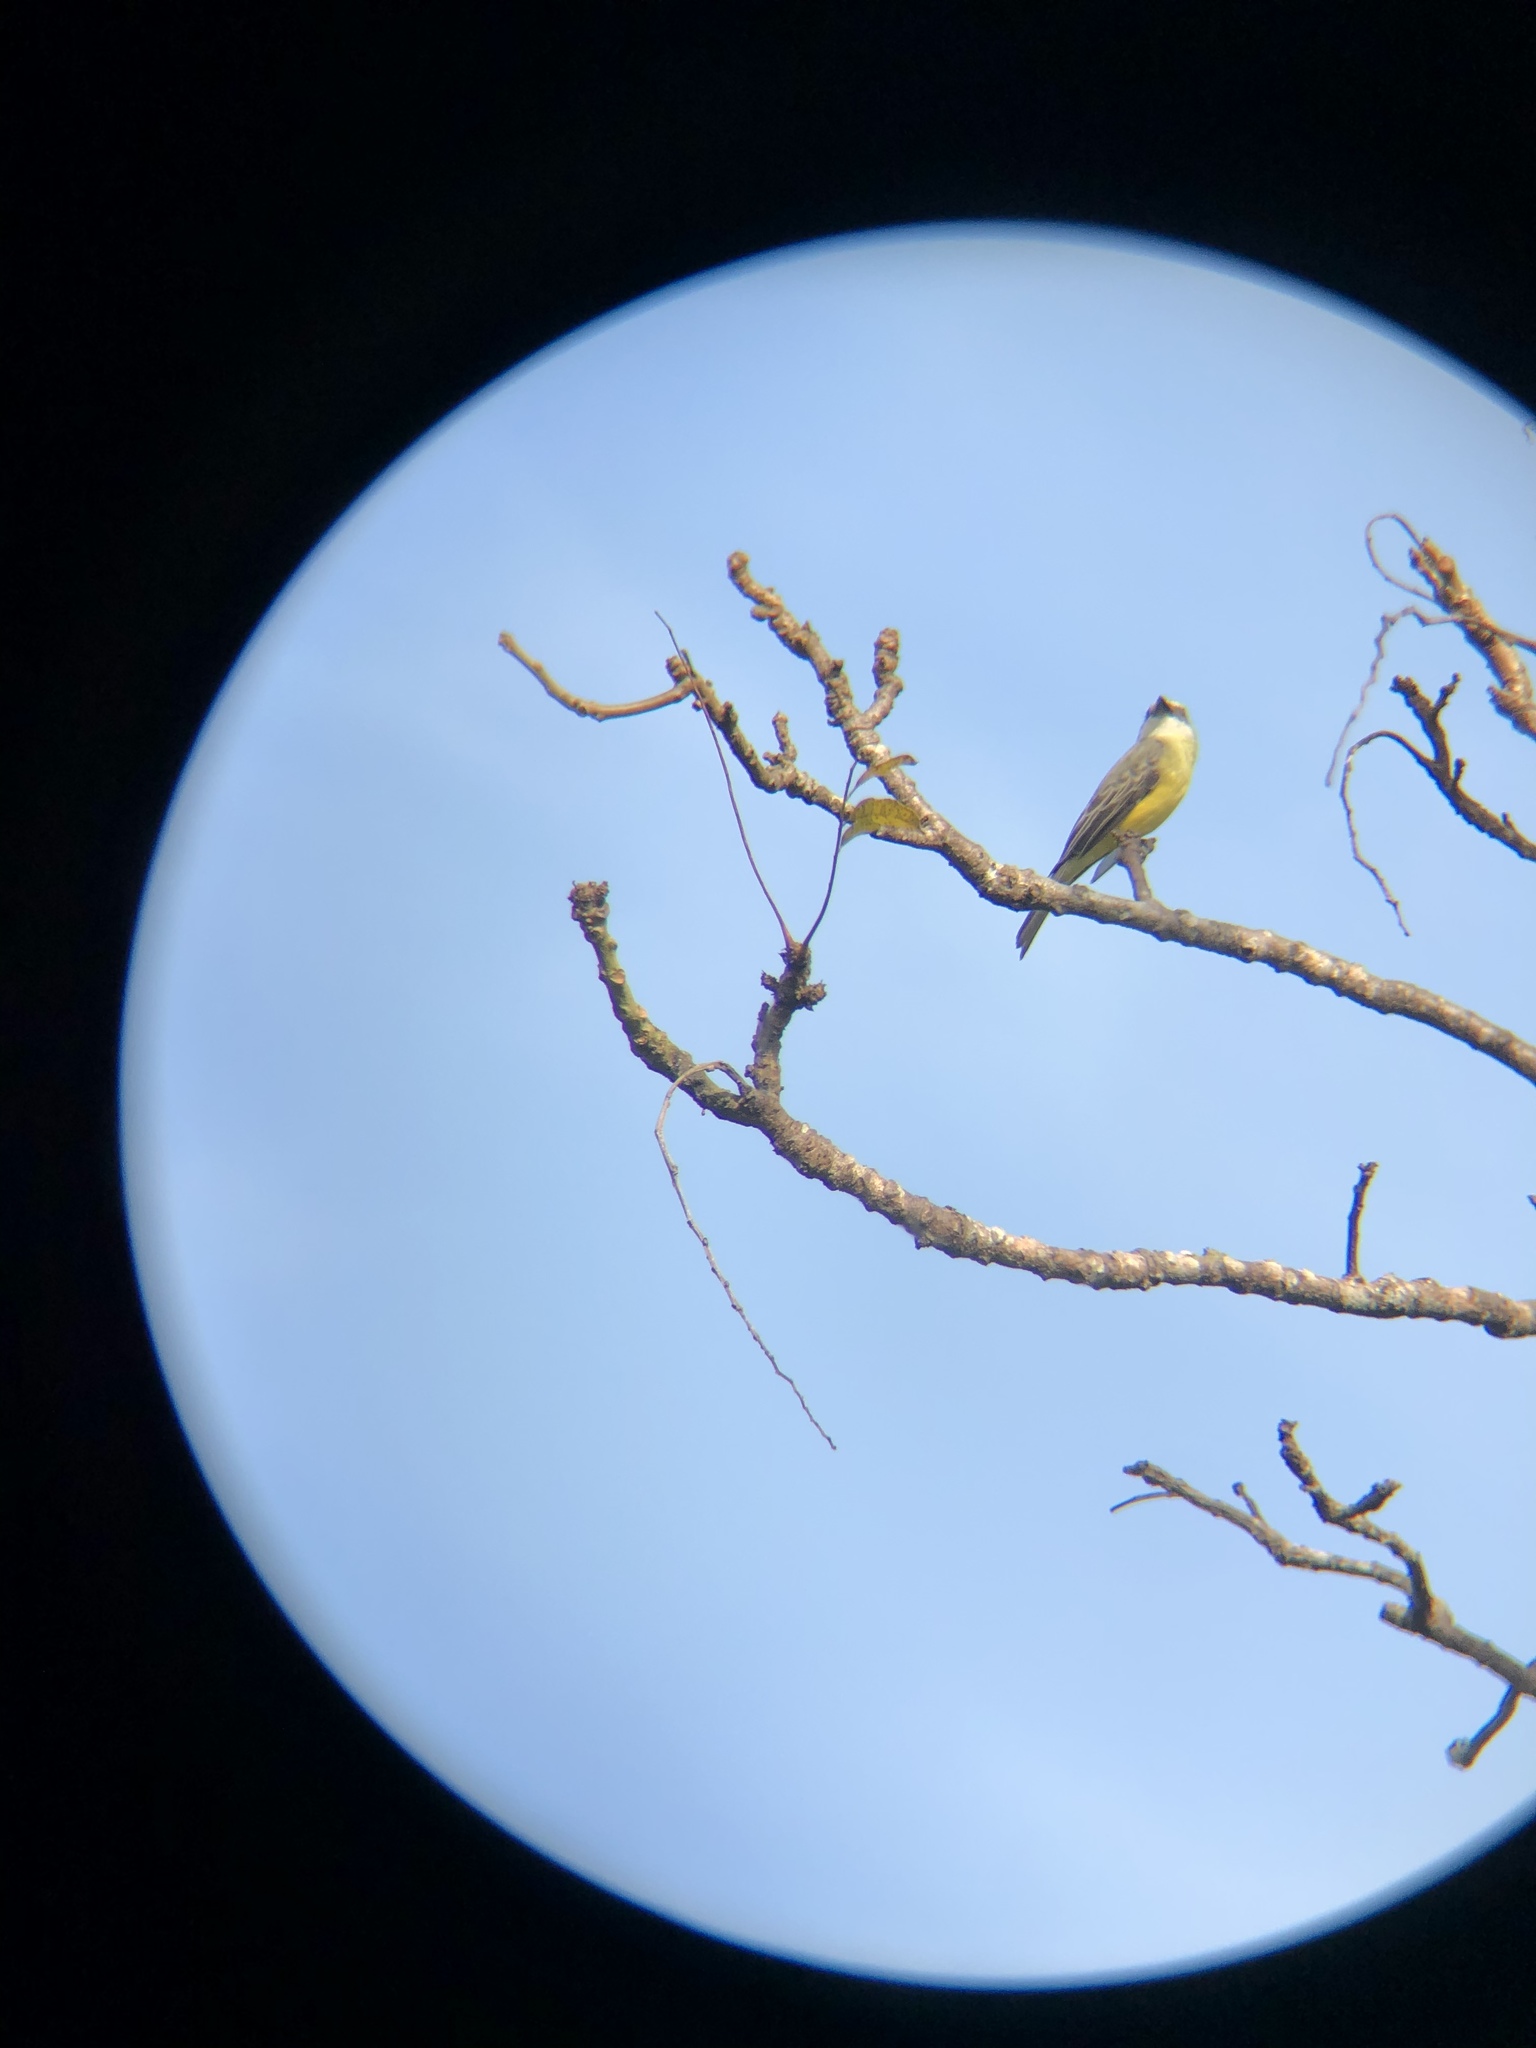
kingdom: Animalia
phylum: Chordata
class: Aves
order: Passeriformes
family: Tyrannidae
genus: Tyrannus
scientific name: Tyrannus melancholicus
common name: Tropical kingbird
